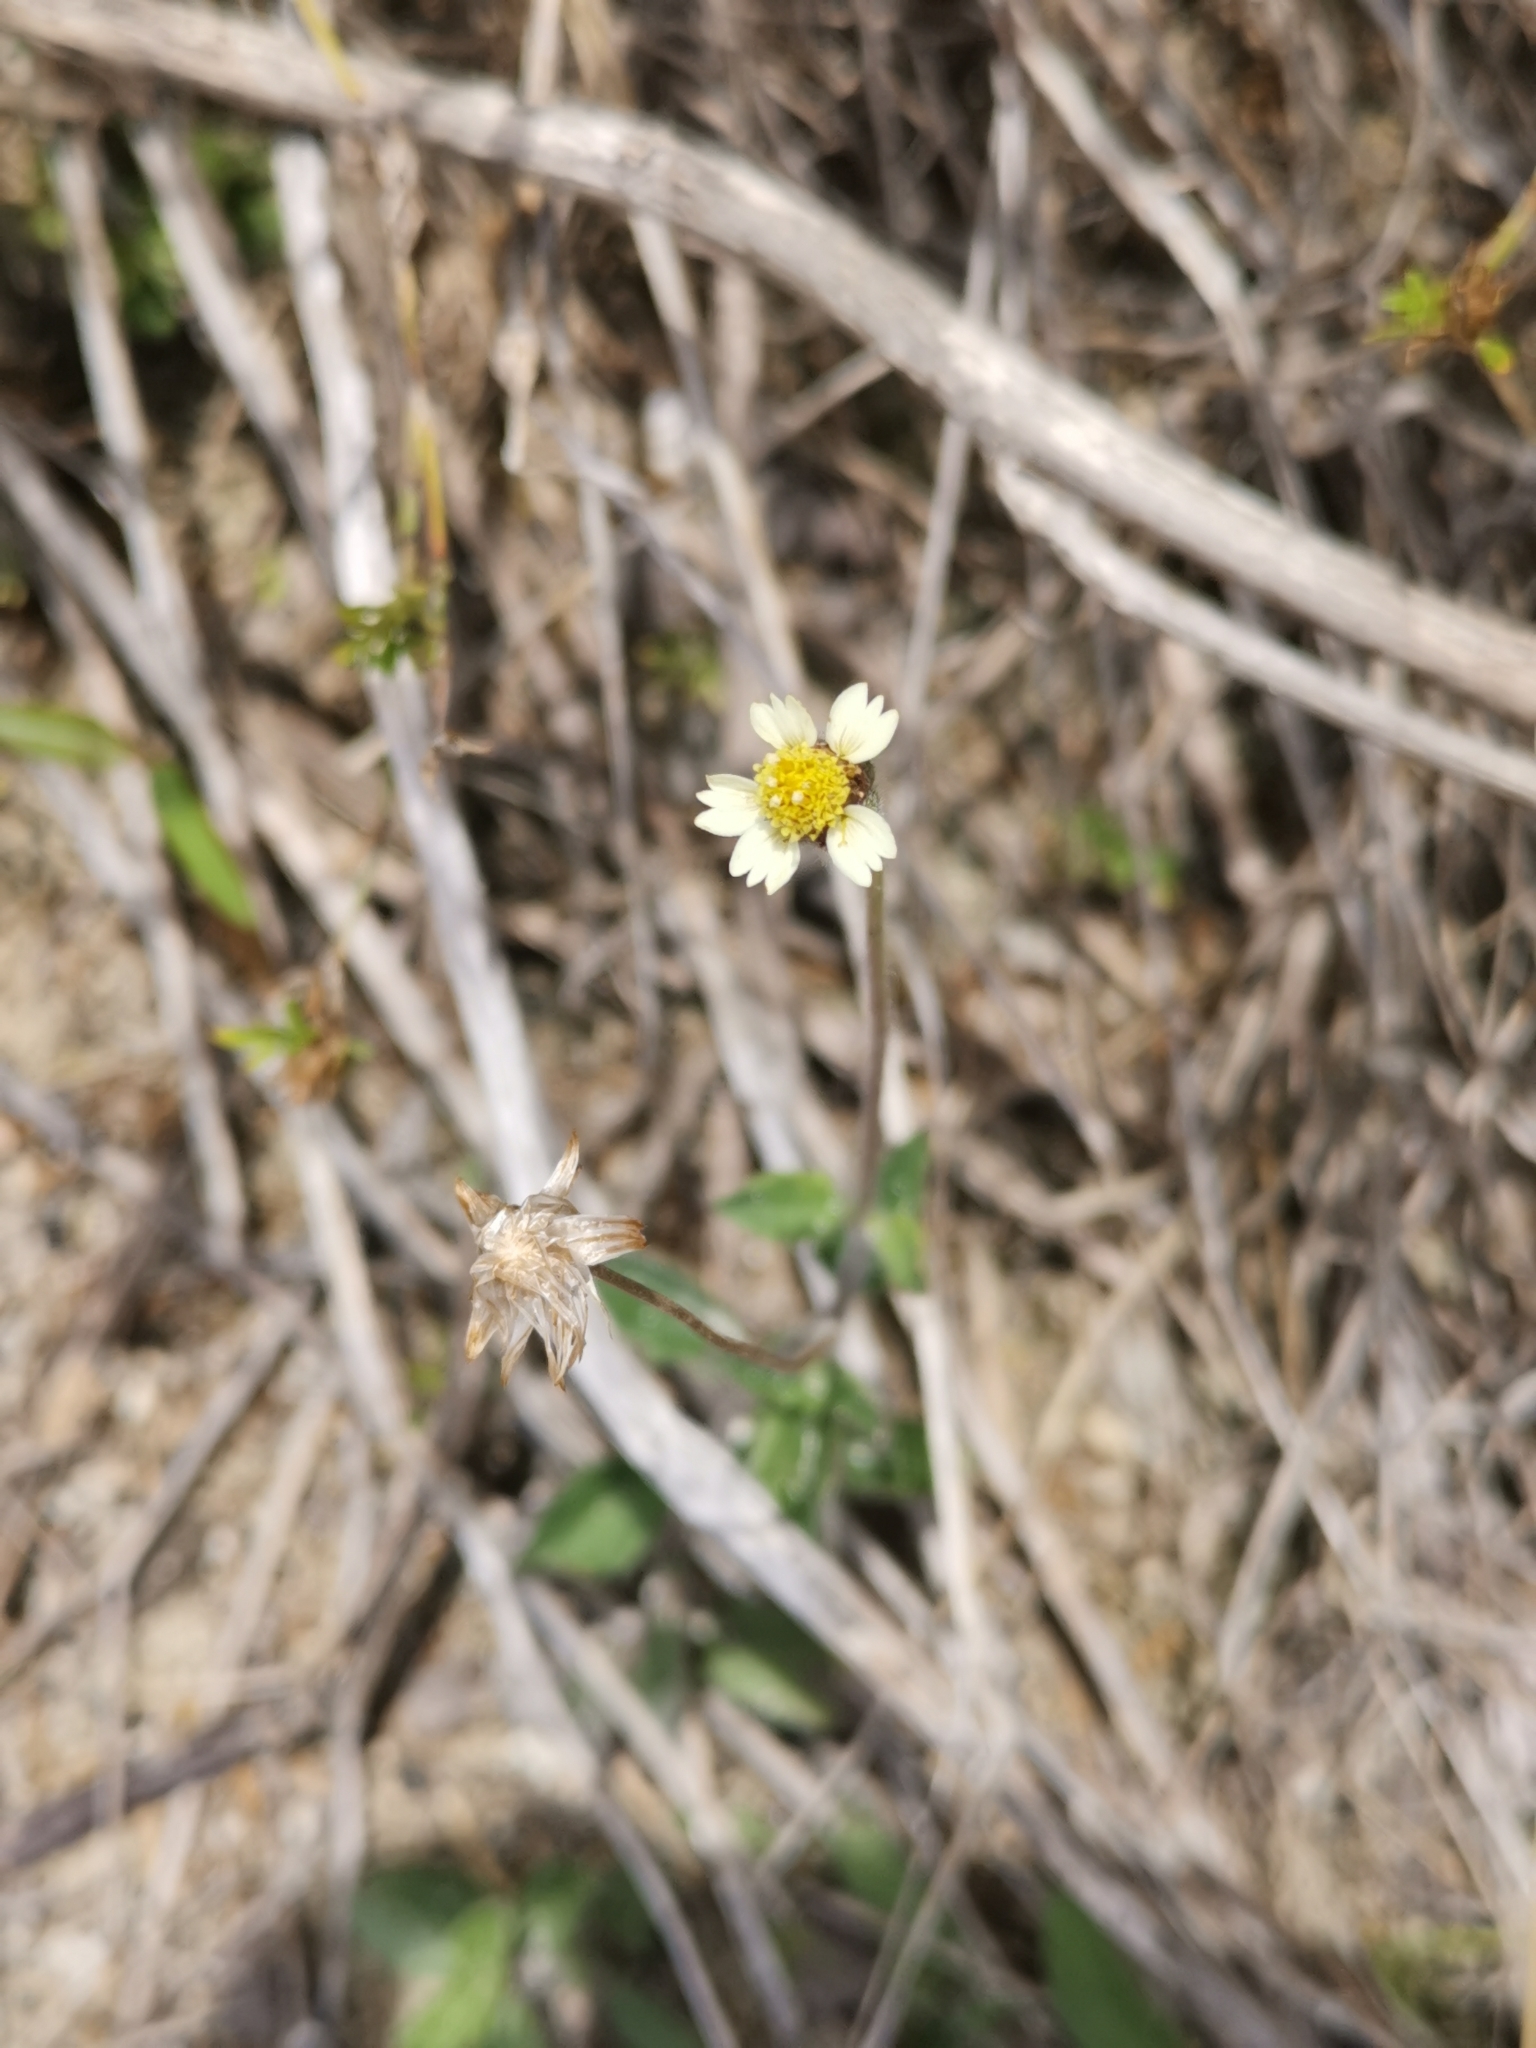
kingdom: Plantae
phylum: Tracheophyta
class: Magnoliopsida
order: Asterales
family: Asteraceae
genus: Tridax
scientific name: Tridax procumbens
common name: Coatbuttons
